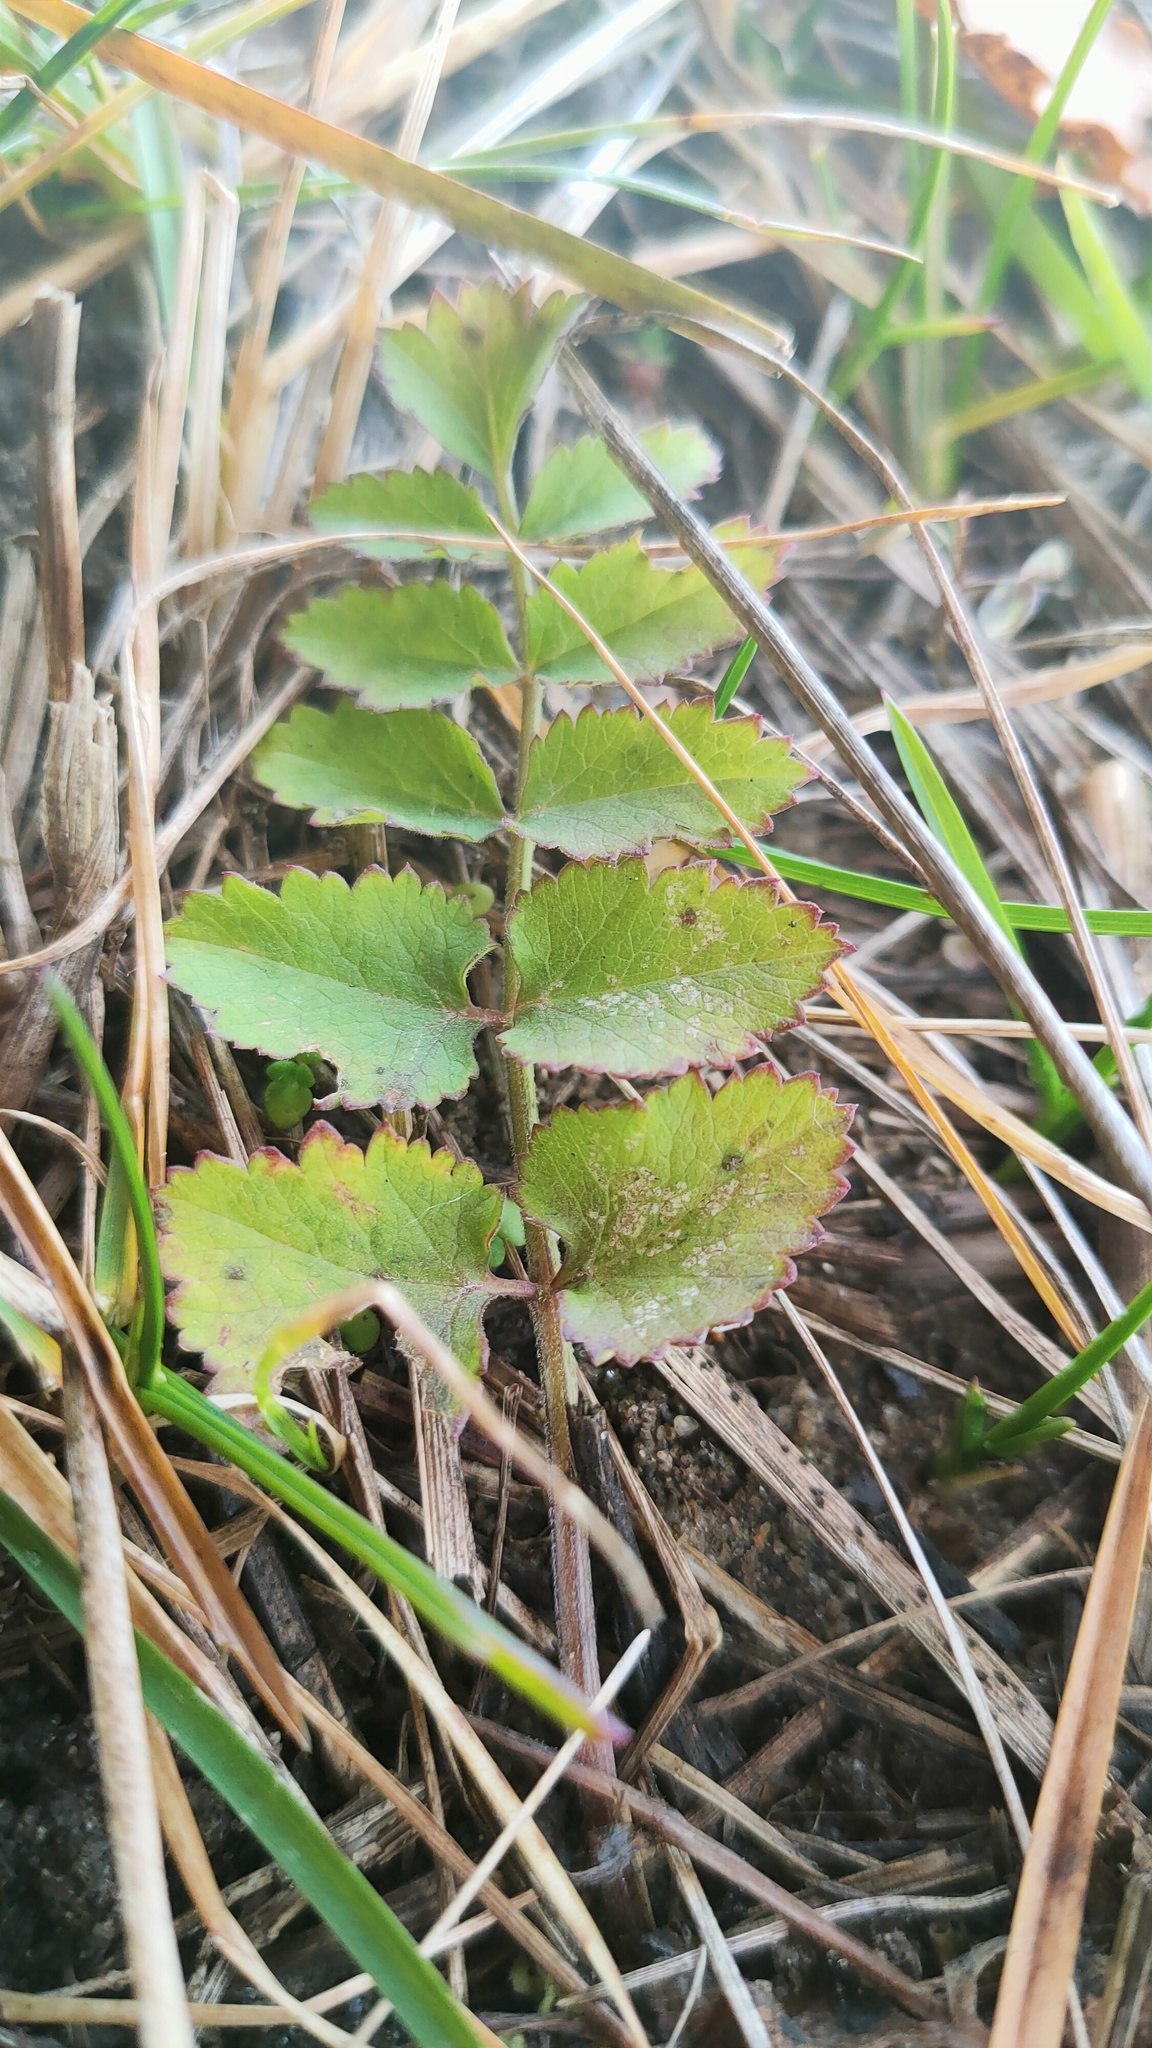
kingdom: Plantae
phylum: Tracheophyta
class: Magnoliopsida
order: Apiales
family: Apiaceae
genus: Pimpinella
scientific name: Pimpinella saxifraga
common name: Burnet-saxifrage
